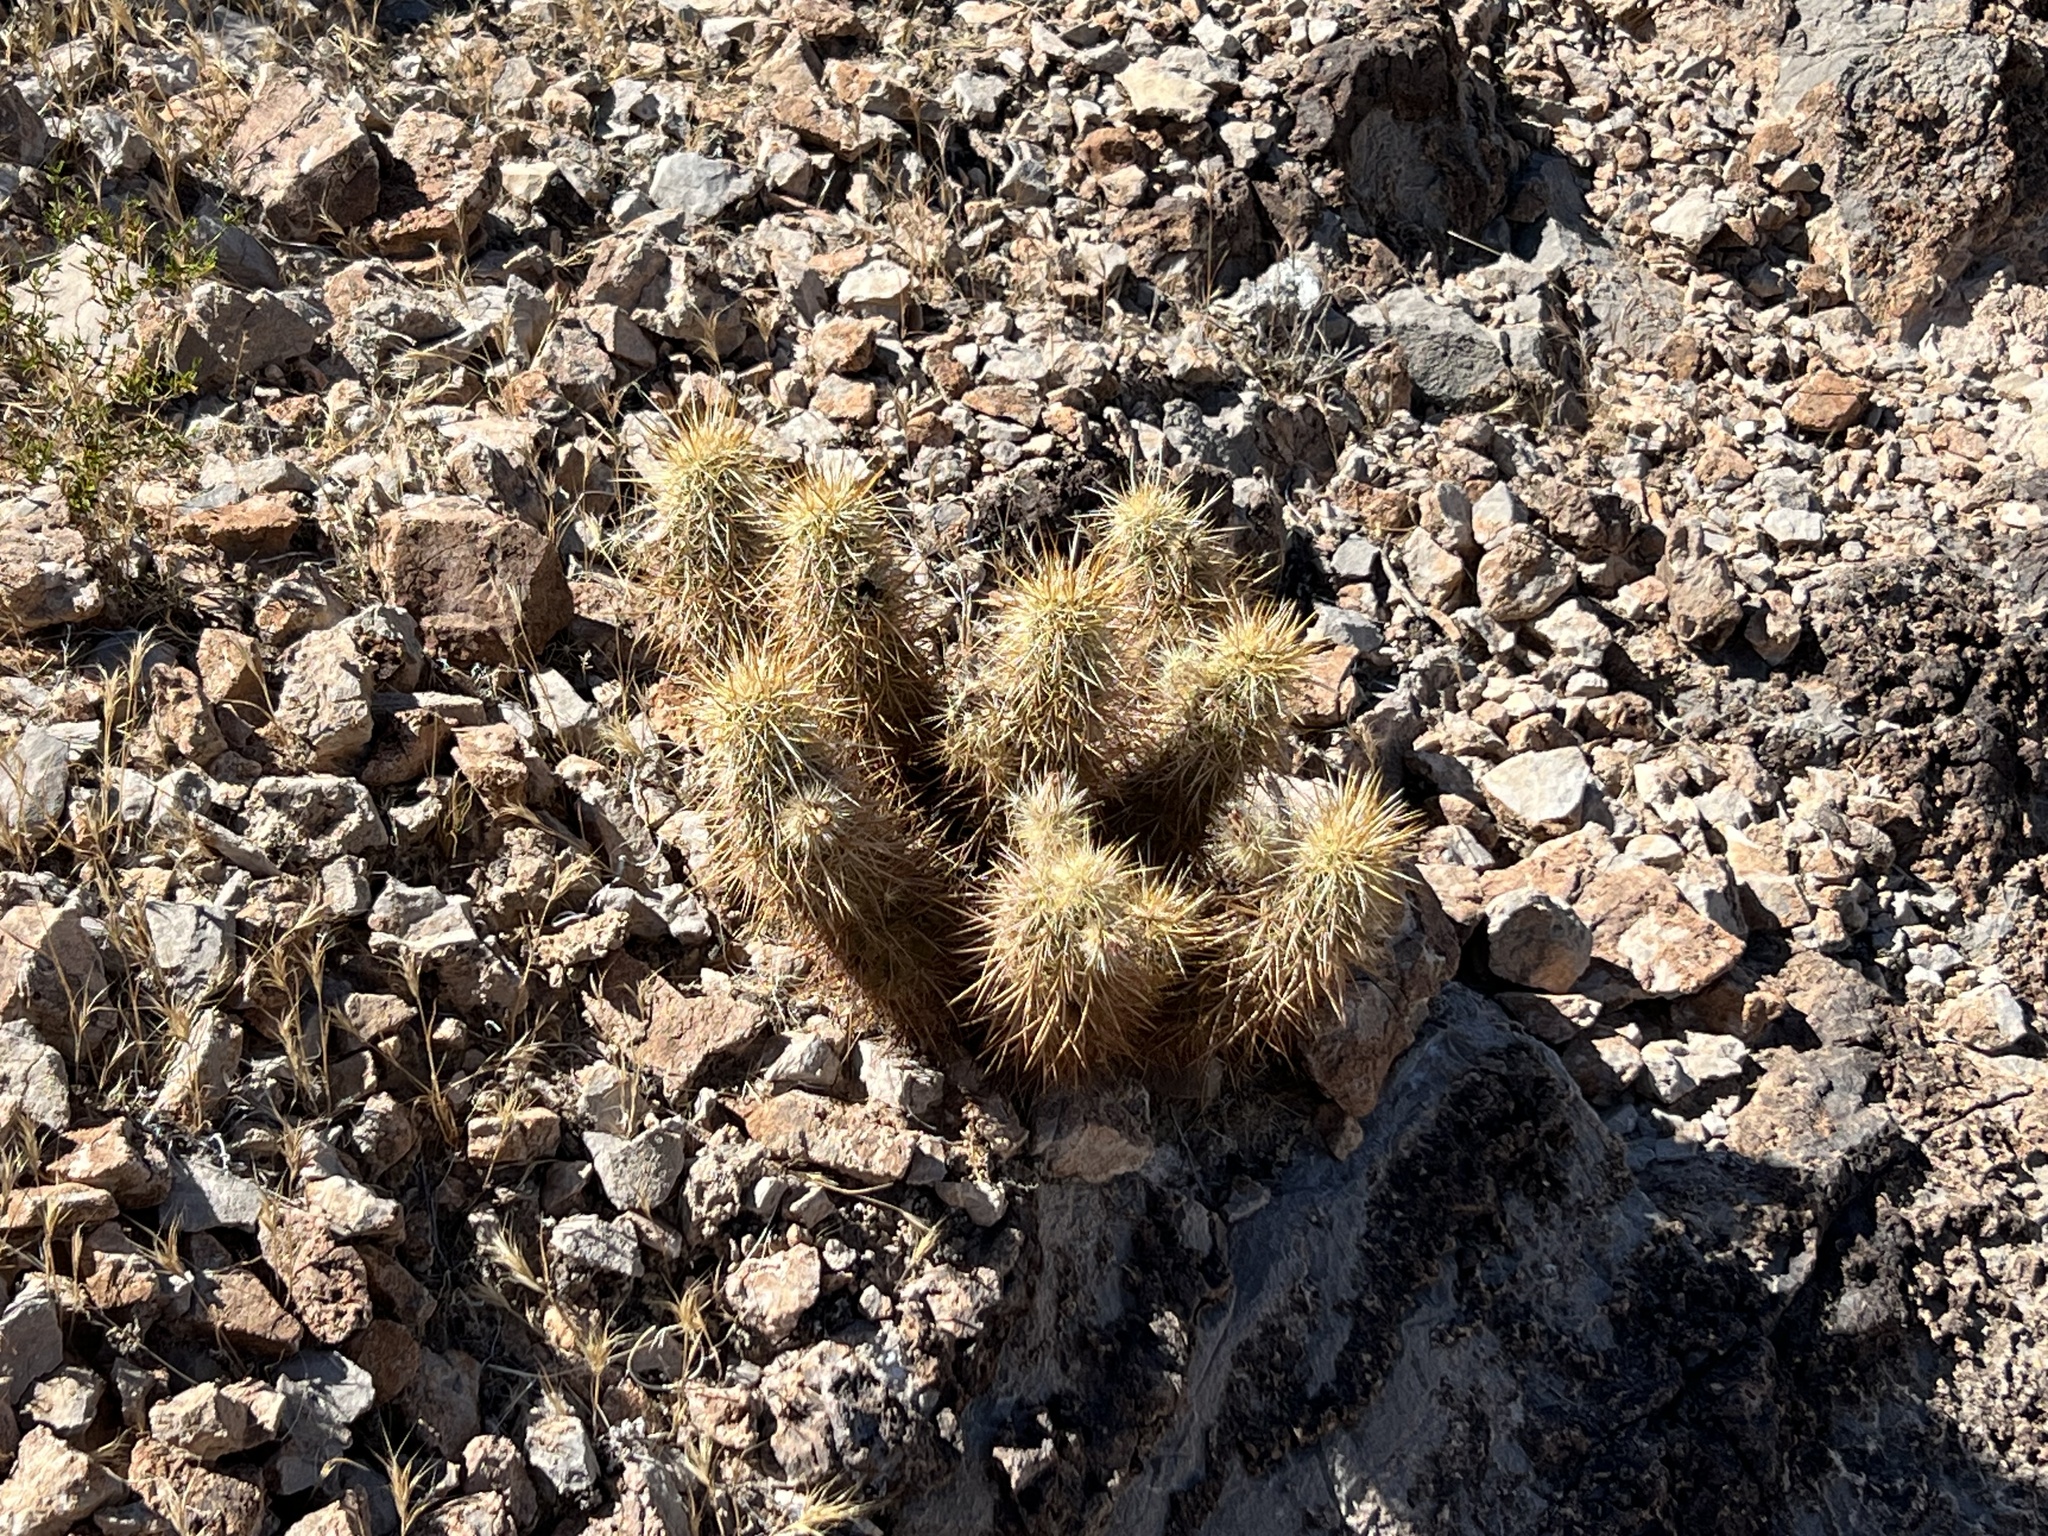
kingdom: Plantae
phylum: Tracheophyta
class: Magnoliopsida
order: Caryophyllales
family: Cactaceae
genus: Echinocereus
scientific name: Echinocereus engelmannii
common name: Engelmann's hedgehog cactus
